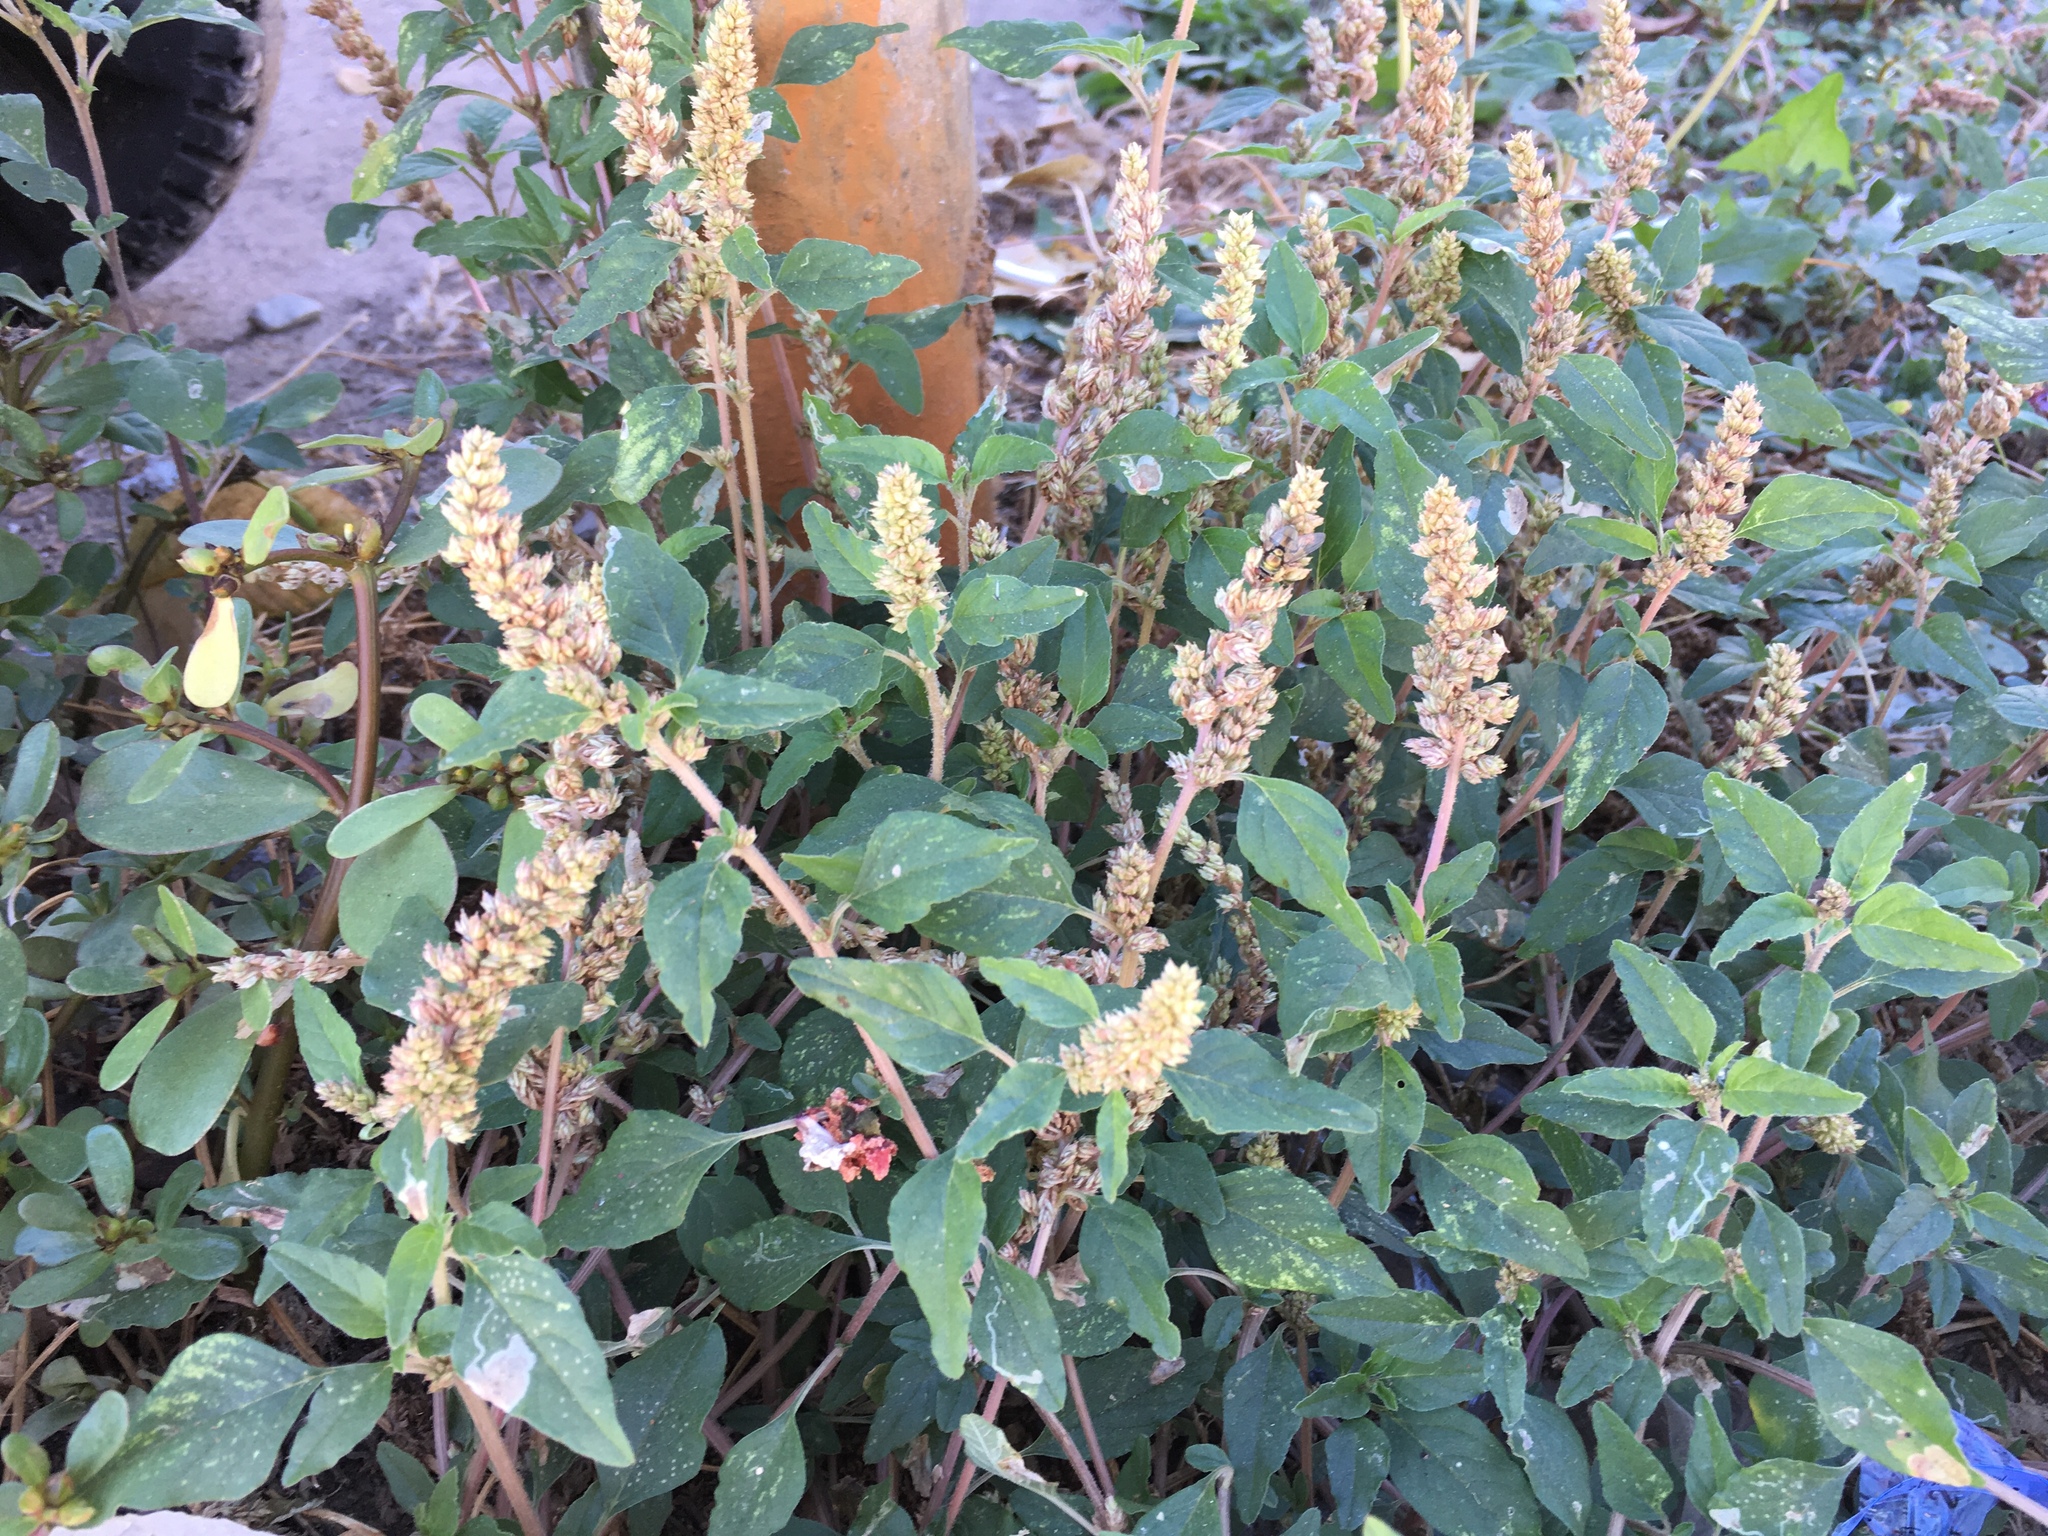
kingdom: Plantae
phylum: Tracheophyta
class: Magnoliopsida
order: Caryophyllales
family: Amaranthaceae
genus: Amaranthus
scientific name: Amaranthus deflexus
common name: Perennial pigweed
